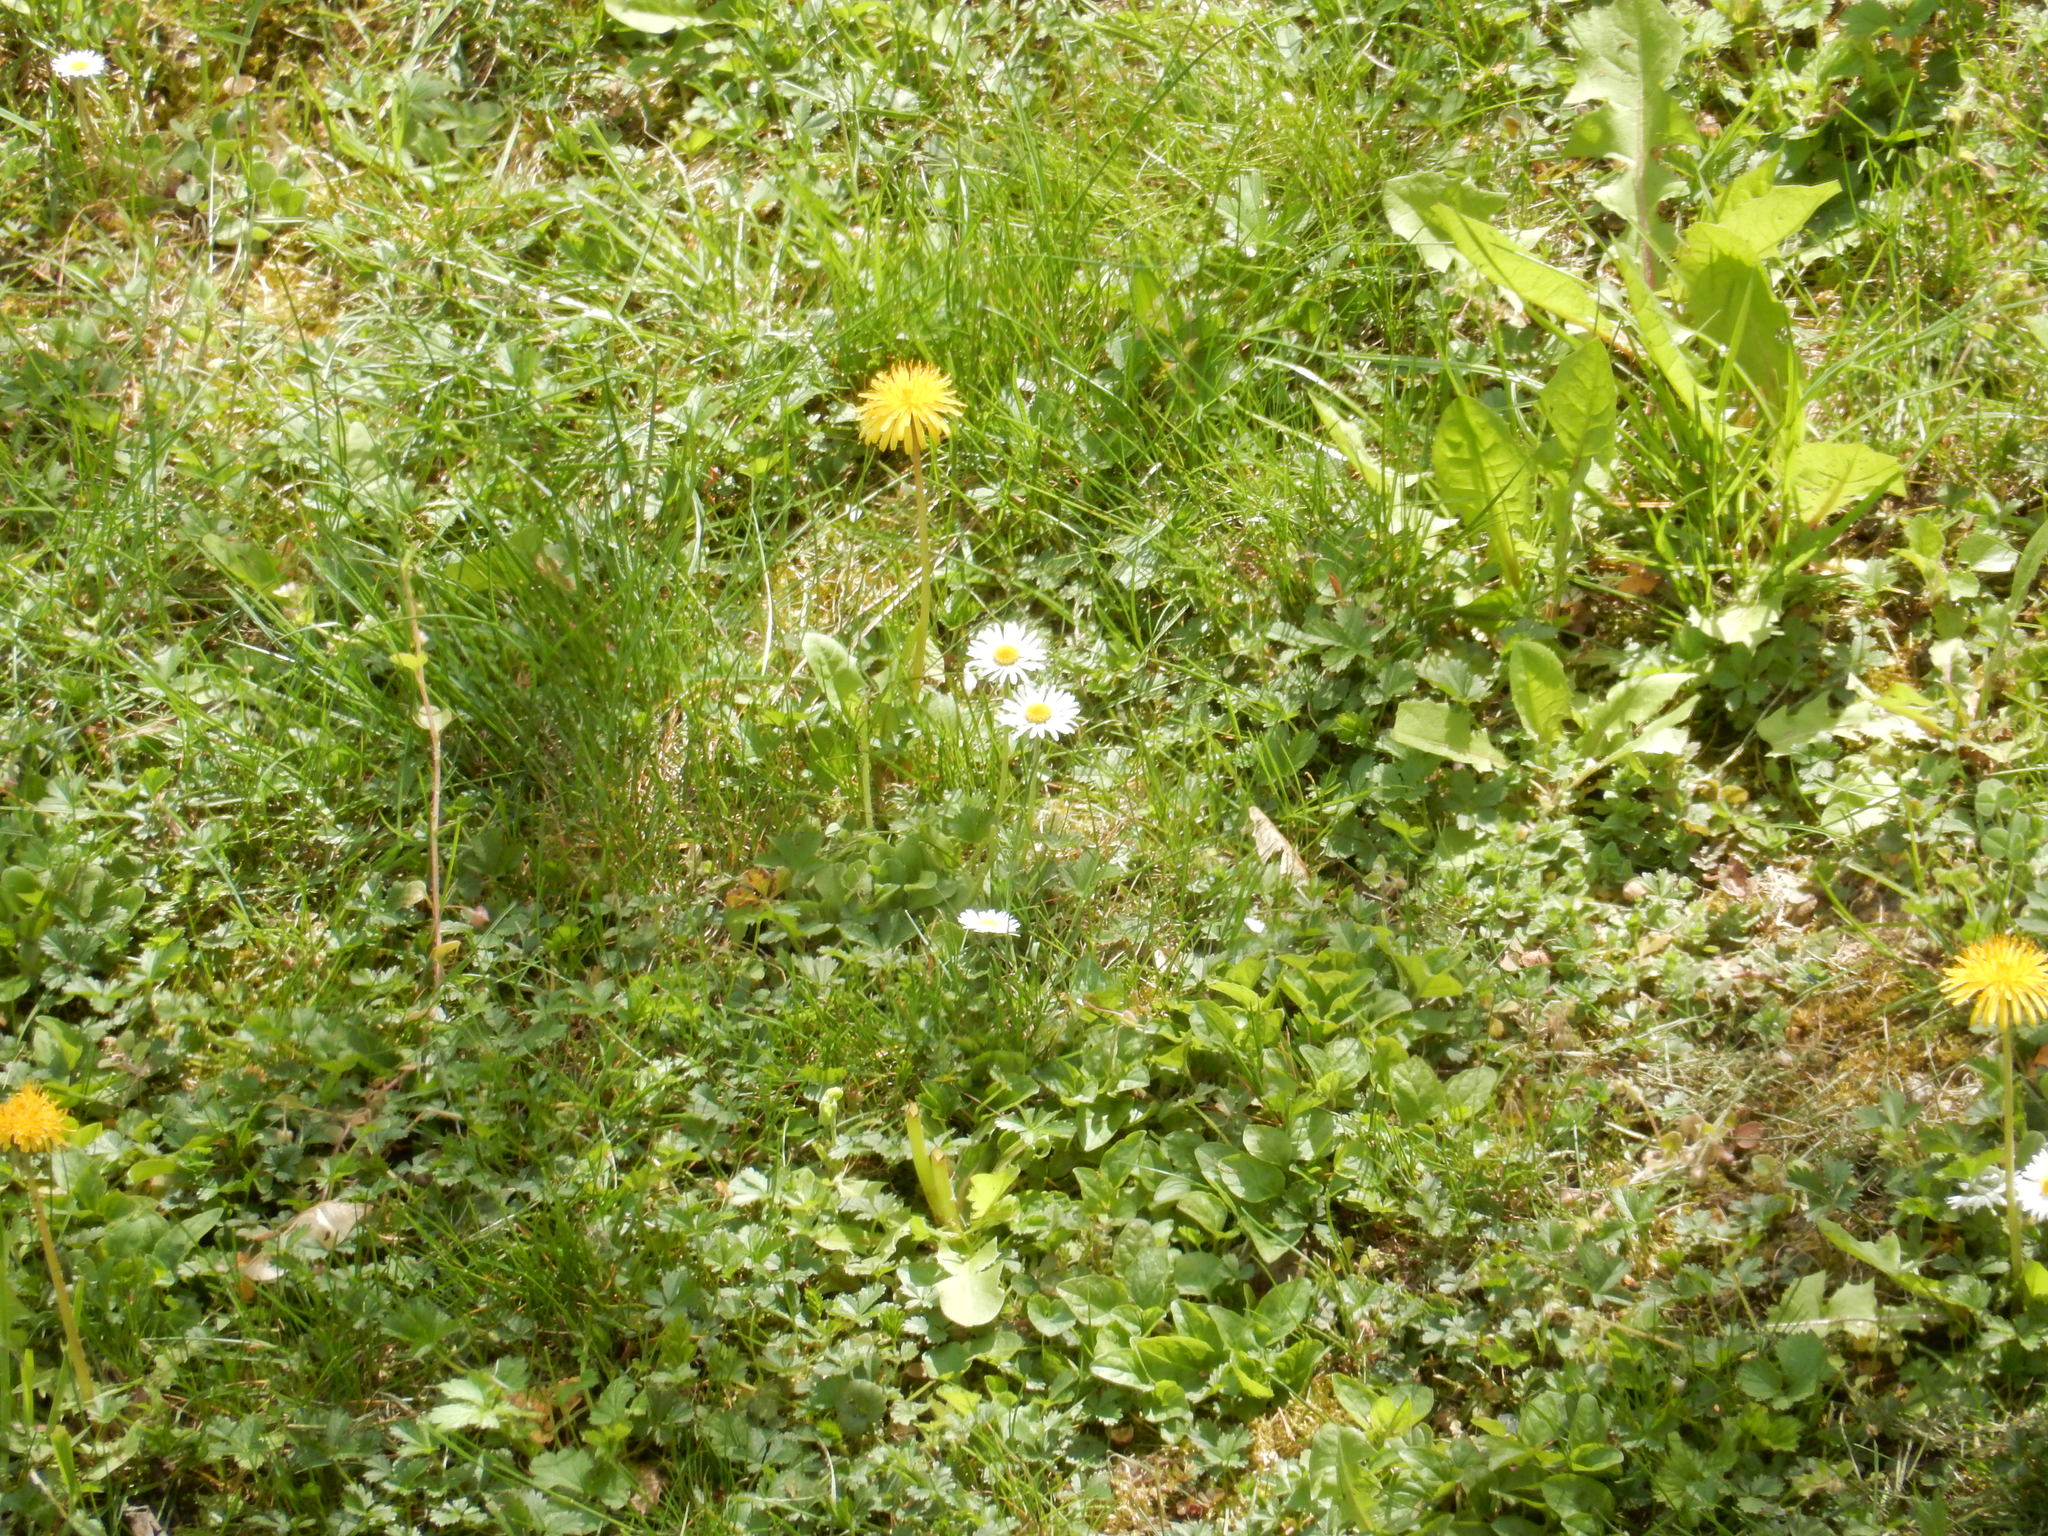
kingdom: Plantae
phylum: Tracheophyta
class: Magnoliopsida
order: Asterales
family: Asteraceae
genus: Bellis
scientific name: Bellis perennis
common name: Lawndaisy
